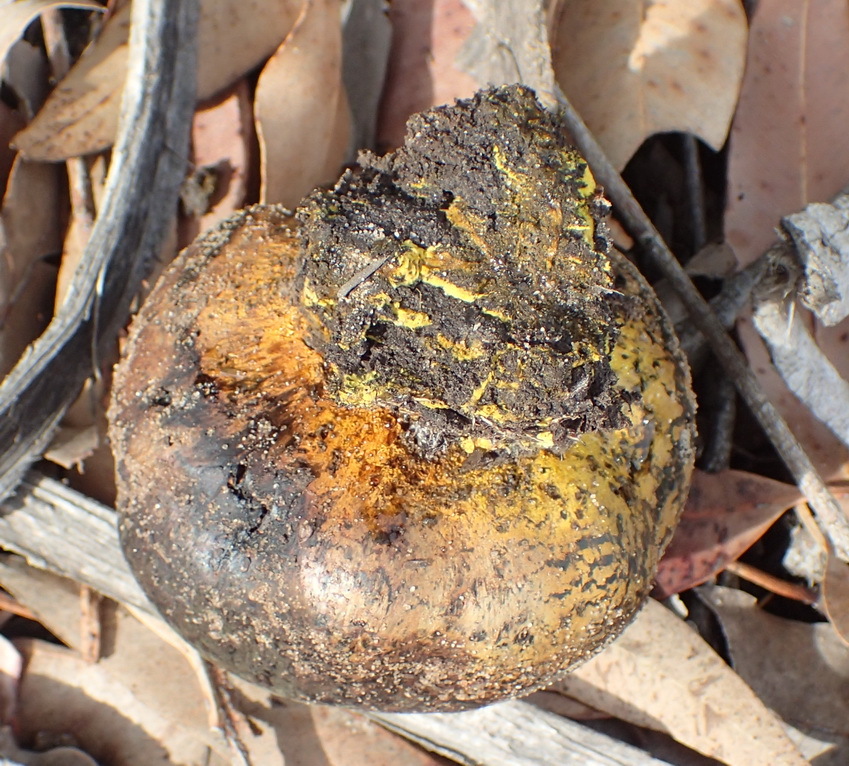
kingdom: Fungi
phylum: Basidiomycota
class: Agaricomycetes
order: Boletales
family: Sclerodermataceae
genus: Pisolithus
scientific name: Pisolithus tinctorius
